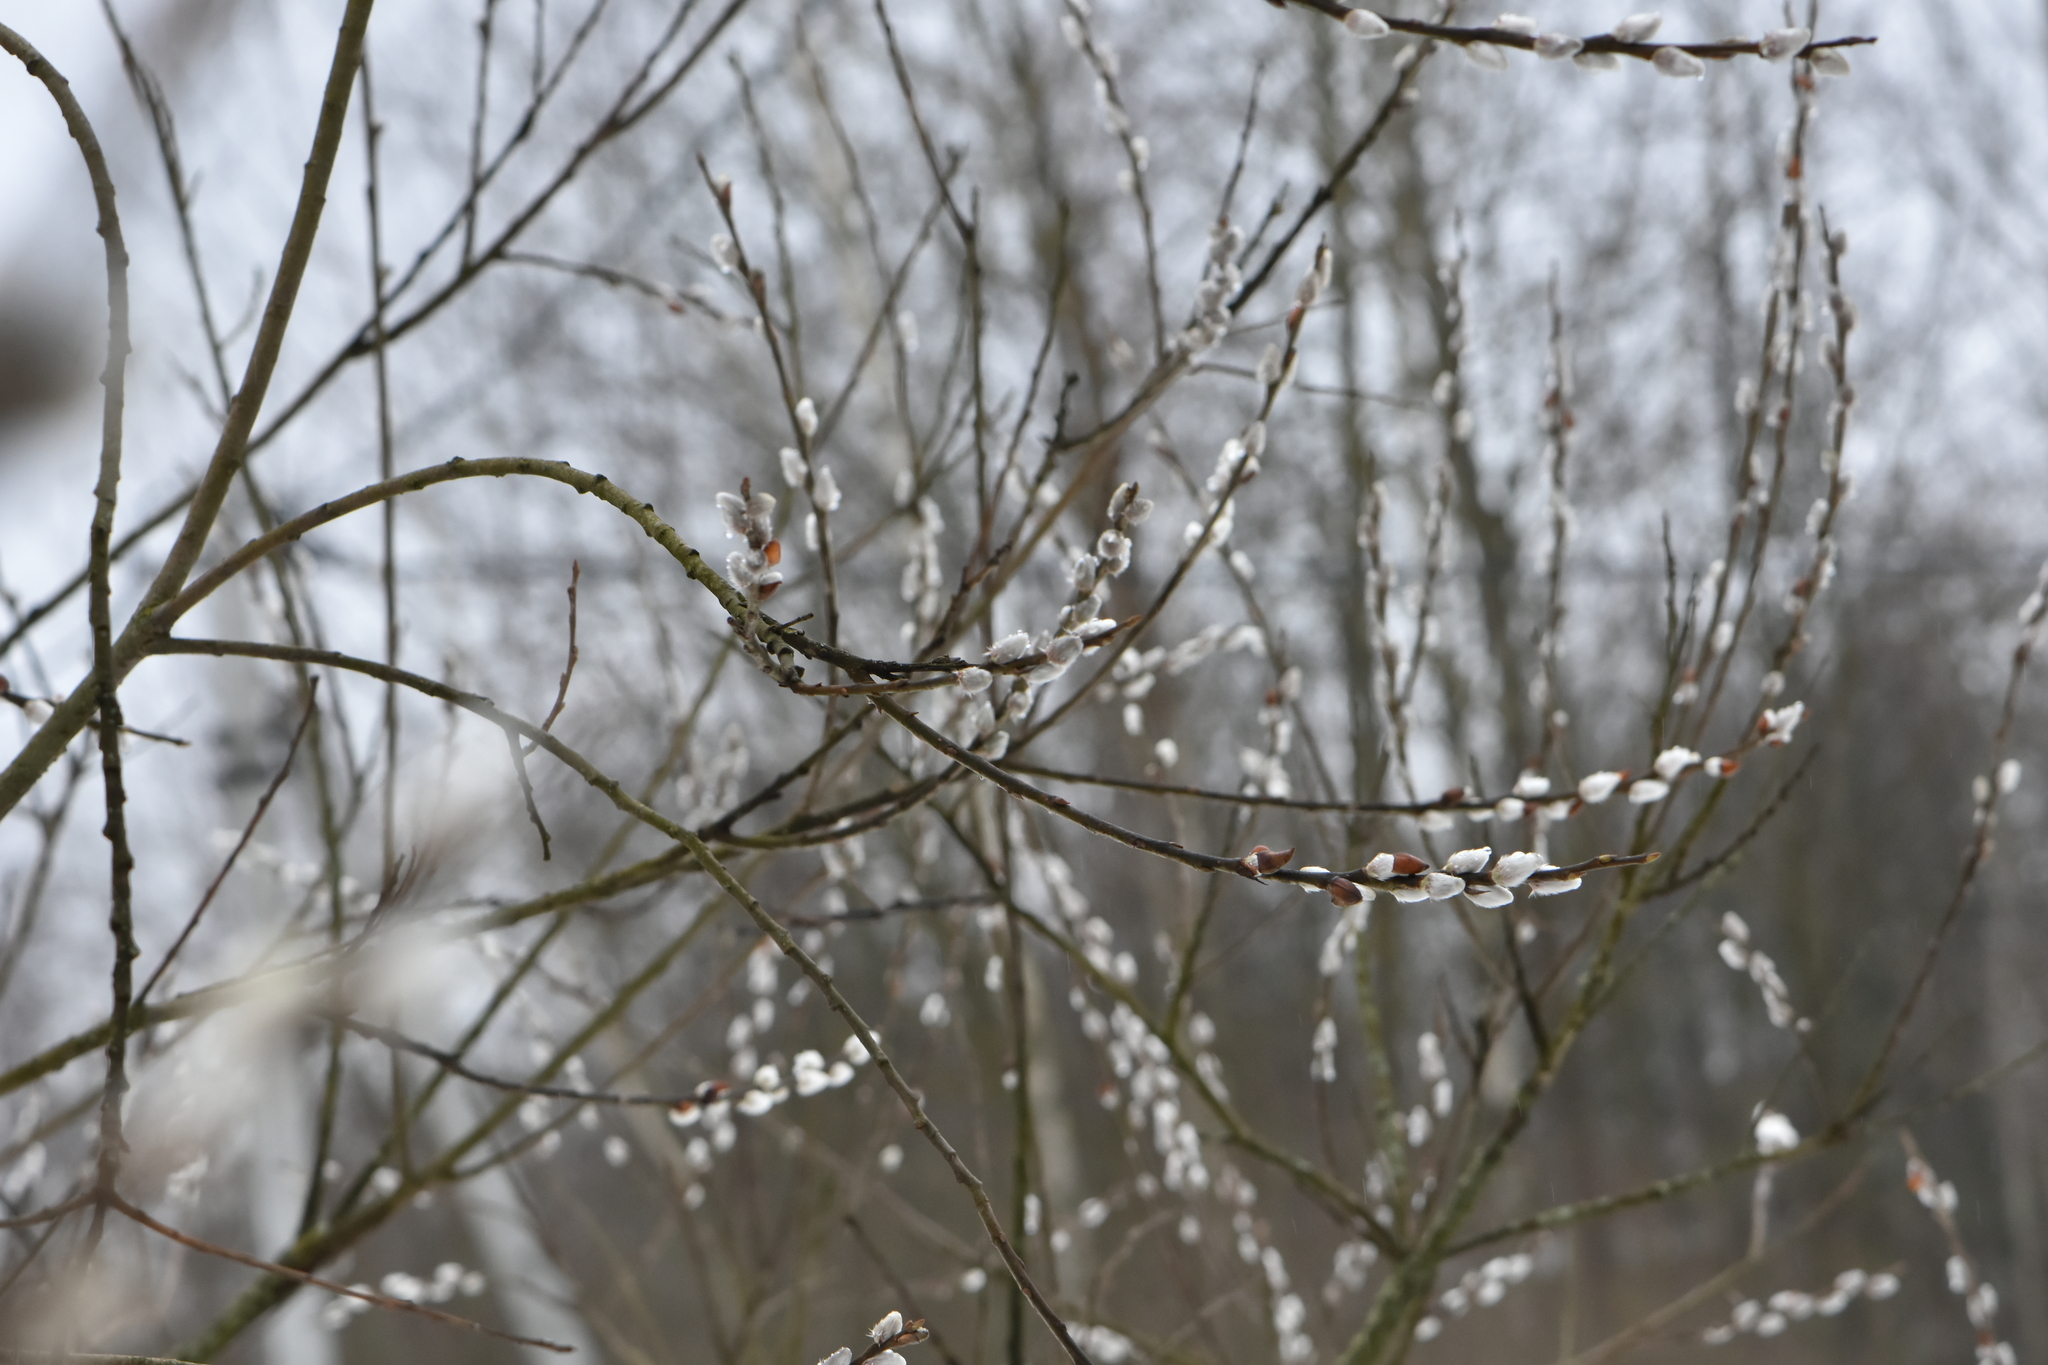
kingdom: Plantae
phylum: Tracheophyta
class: Magnoliopsida
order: Malpighiales
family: Salicaceae
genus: Salix
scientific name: Salix caprea
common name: Goat willow
